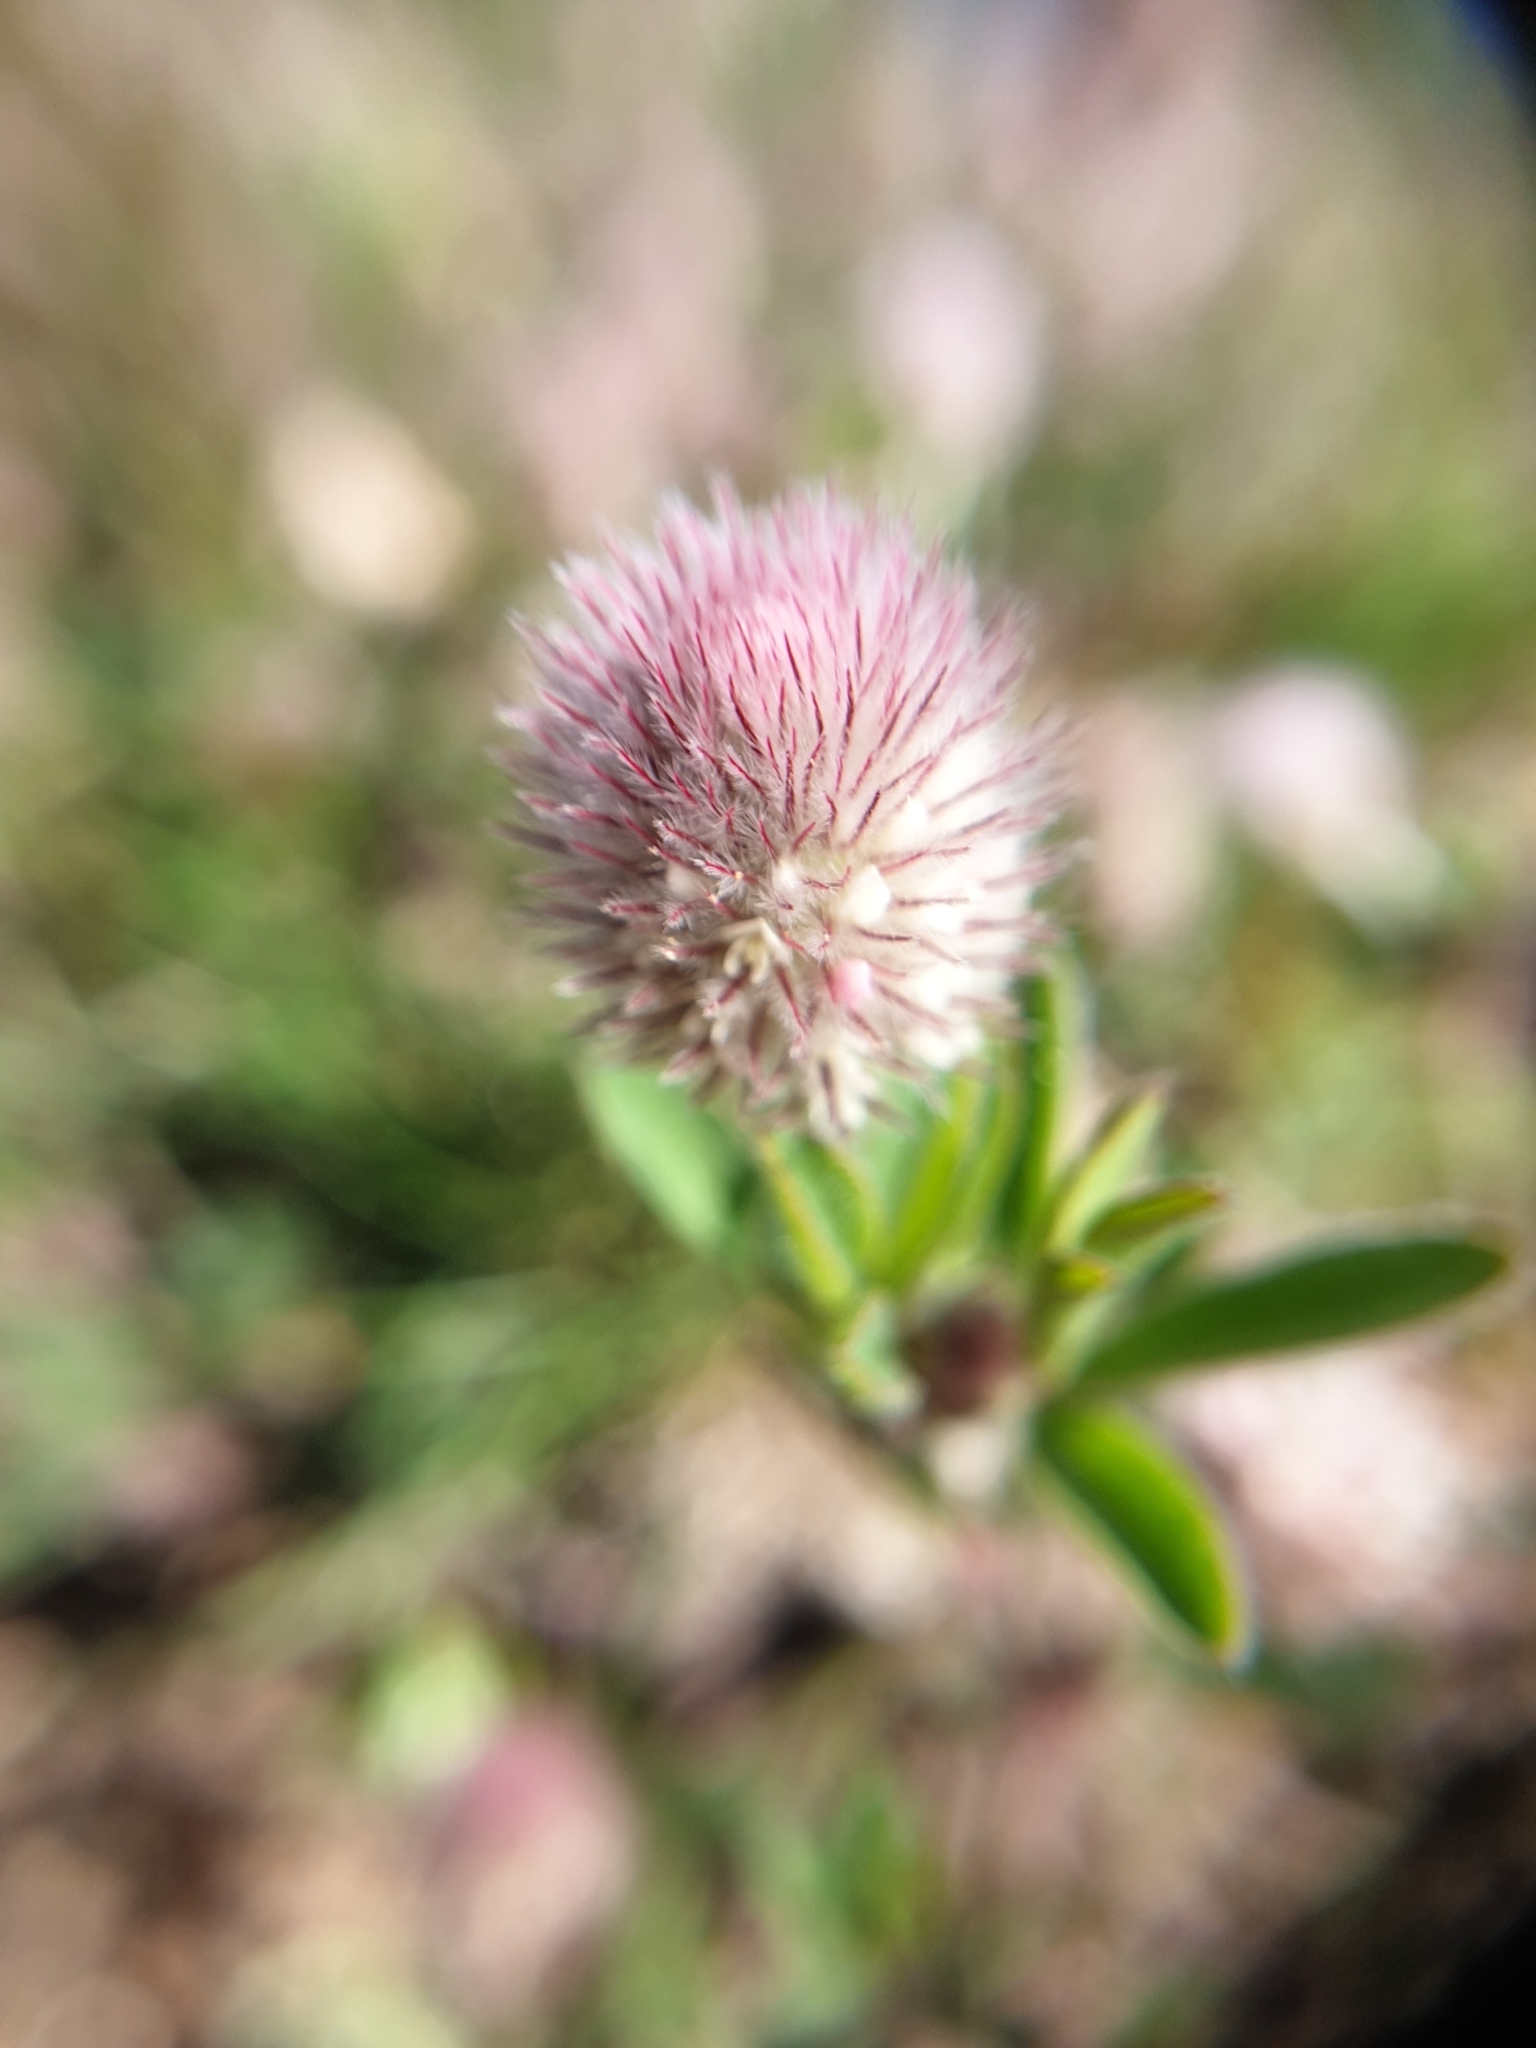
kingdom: Plantae
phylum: Tracheophyta
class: Magnoliopsida
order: Fabales
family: Fabaceae
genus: Trifolium
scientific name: Trifolium arvense
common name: Hare's-foot clover
